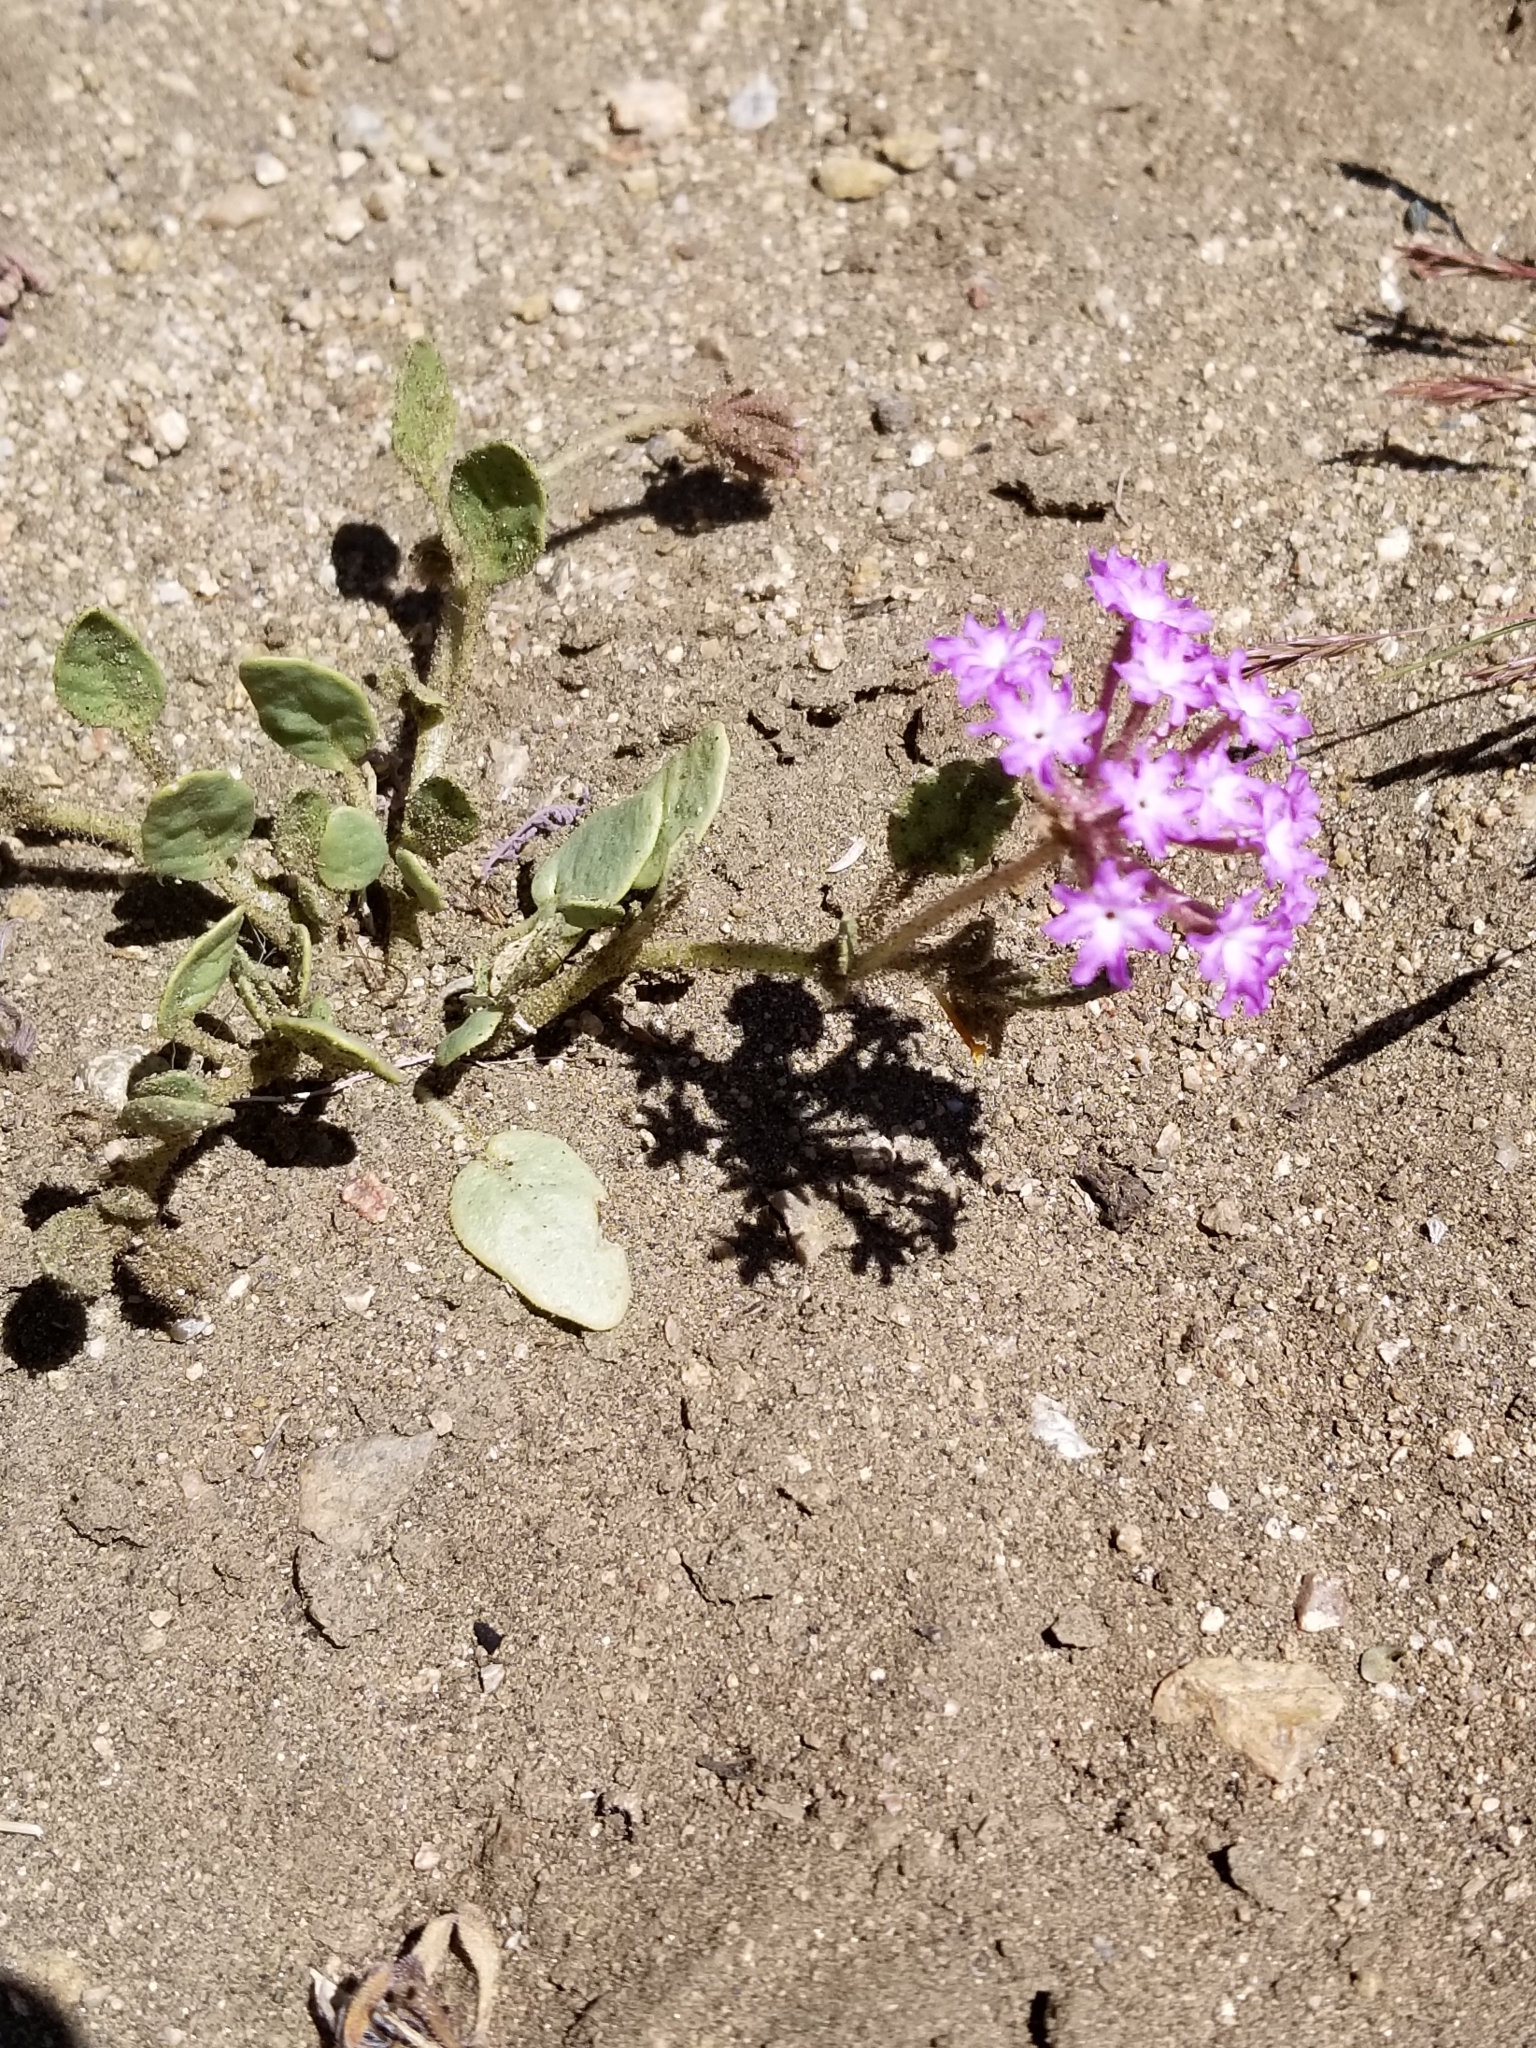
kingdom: Plantae
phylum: Tracheophyta
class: Magnoliopsida
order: Caryophyllales
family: Nyctaginaceae
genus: Abronia
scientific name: Abronia villosa
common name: Desert sand-verbena
